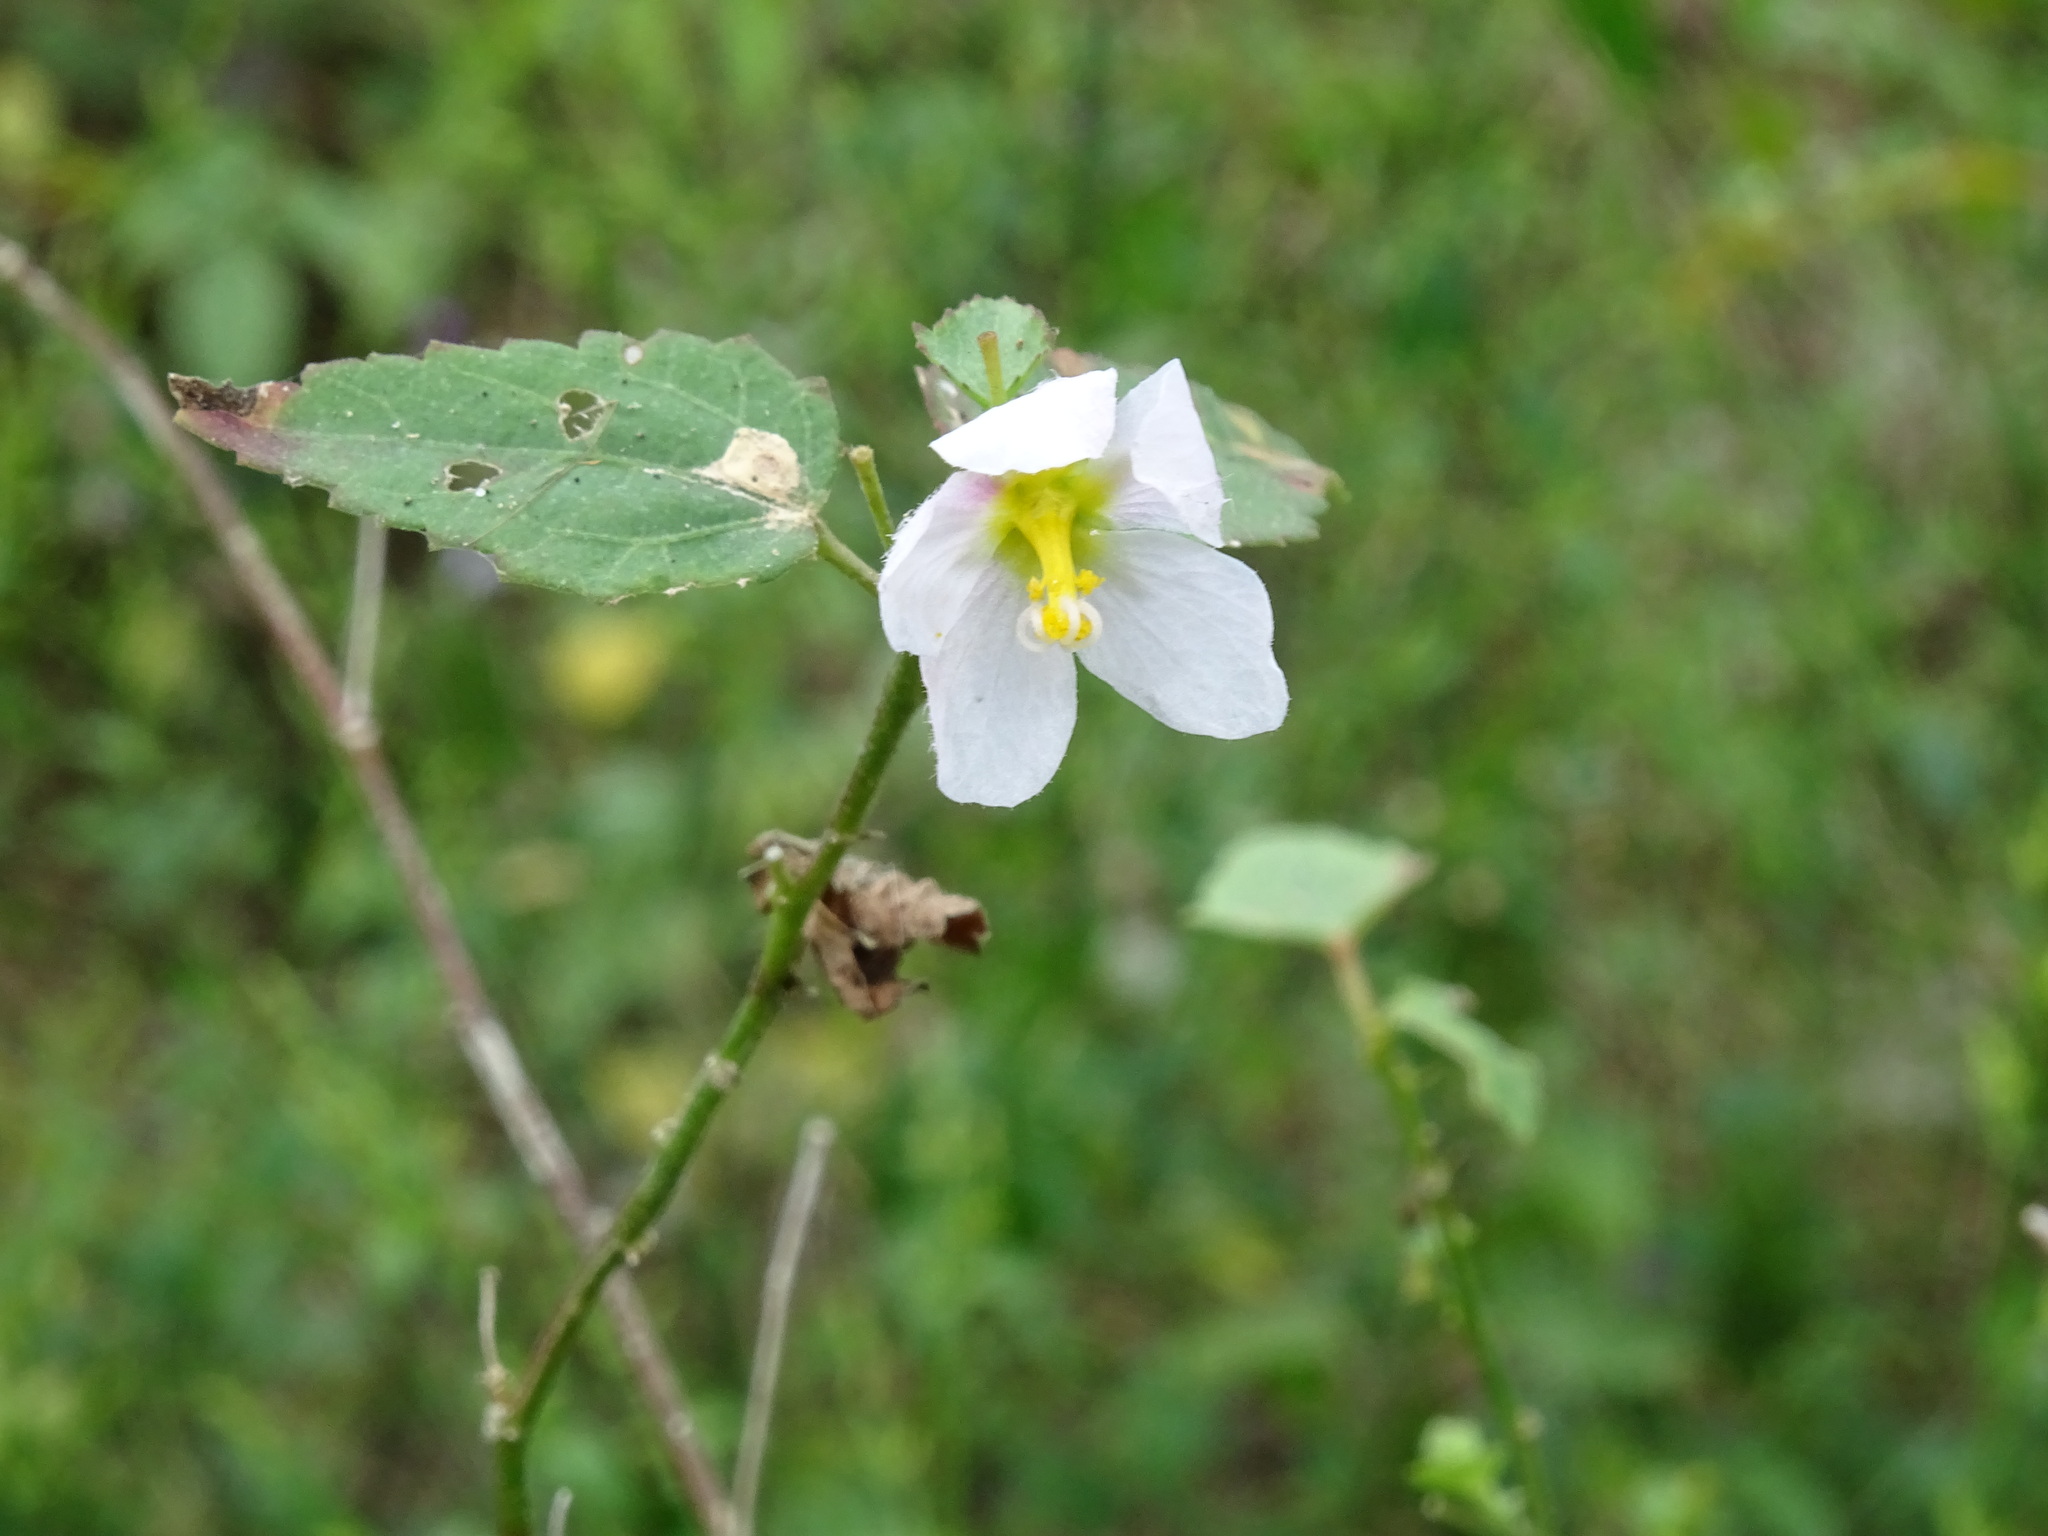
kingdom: Plantae
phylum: Tracheophyta
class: Magnoliopsida
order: Malvales
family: Malvaceae
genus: Kosteletzkya
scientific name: Kosteletzkya depressa
